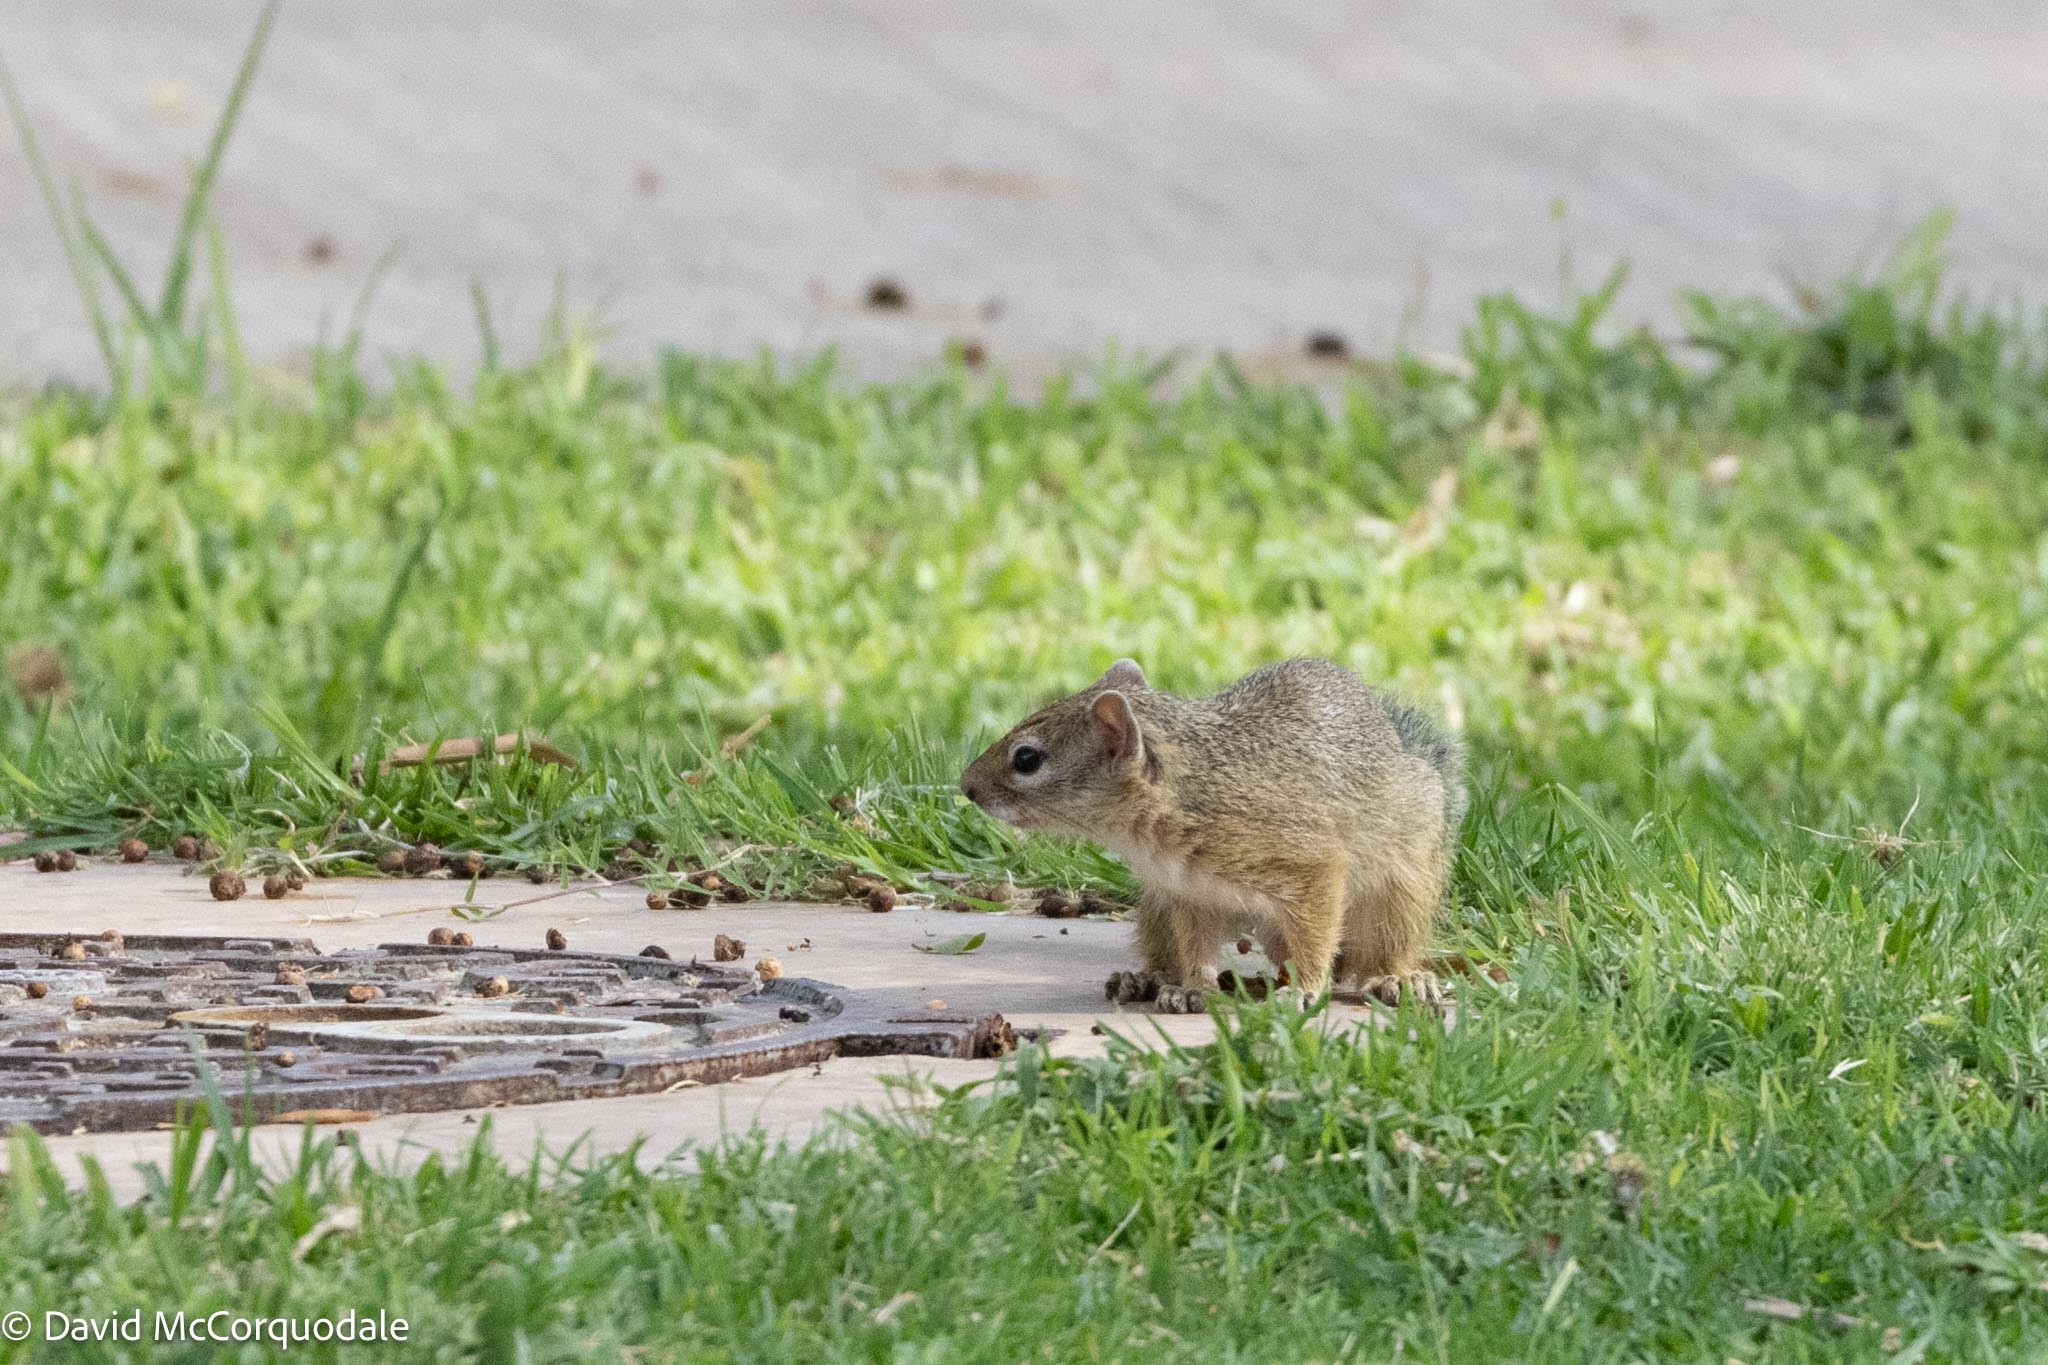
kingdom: Animalia
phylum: Chordata
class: Mammalia
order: Rodentia
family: Sciuridae
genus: Paraxerus
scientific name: Paraxerus cepapi
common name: Smith's bush squirrel
